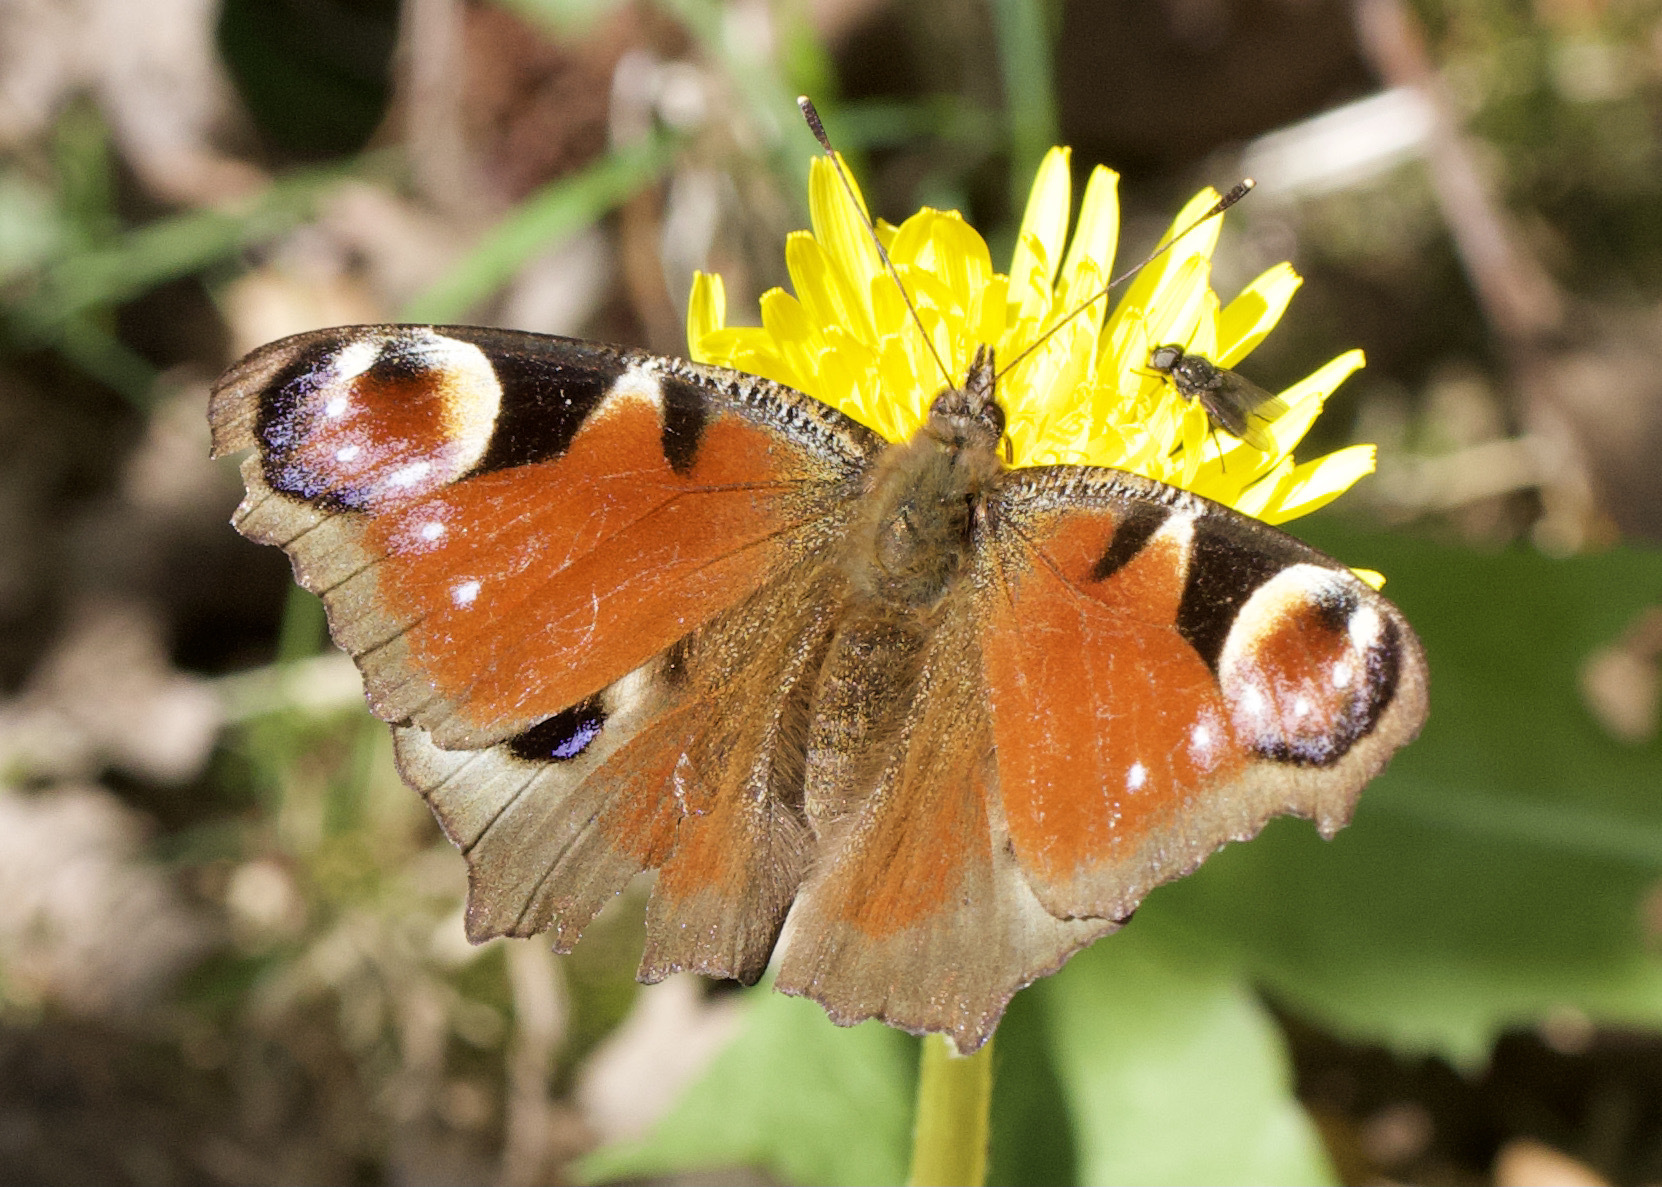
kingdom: Animalia
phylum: Arthropoda
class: Insecta
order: Lepidoptera
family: Nymphalidae
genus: Aglais
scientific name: Aglais io
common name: Peacock
